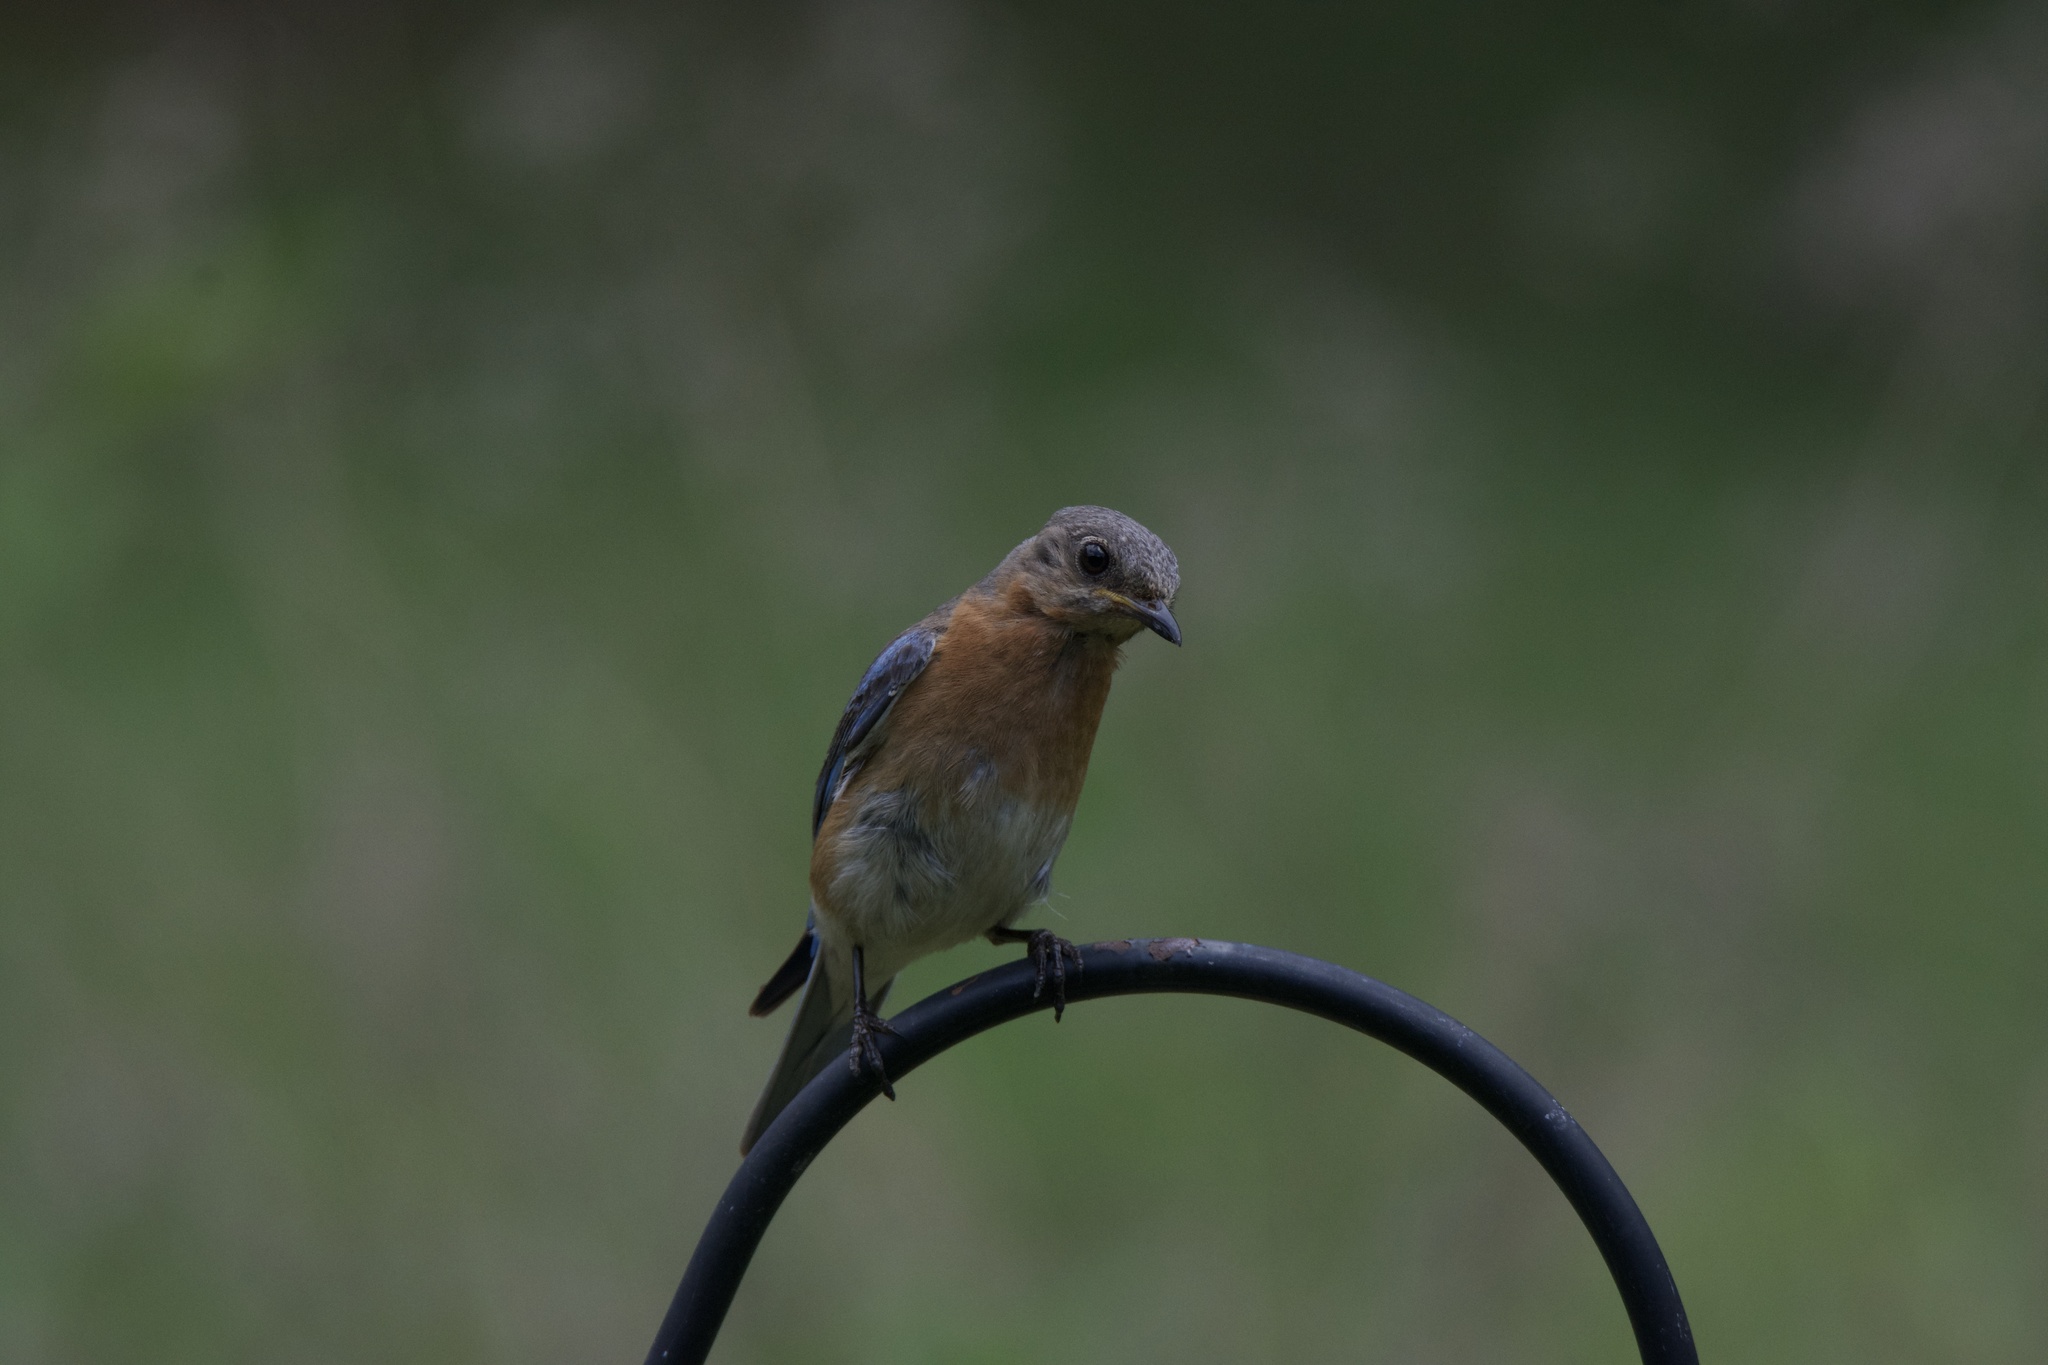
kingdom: Animalia
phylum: Chordata
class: Aves
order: Passeriformes
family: Turdidae
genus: Sialia
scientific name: Sialia sialis
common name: Eastern bluebird
